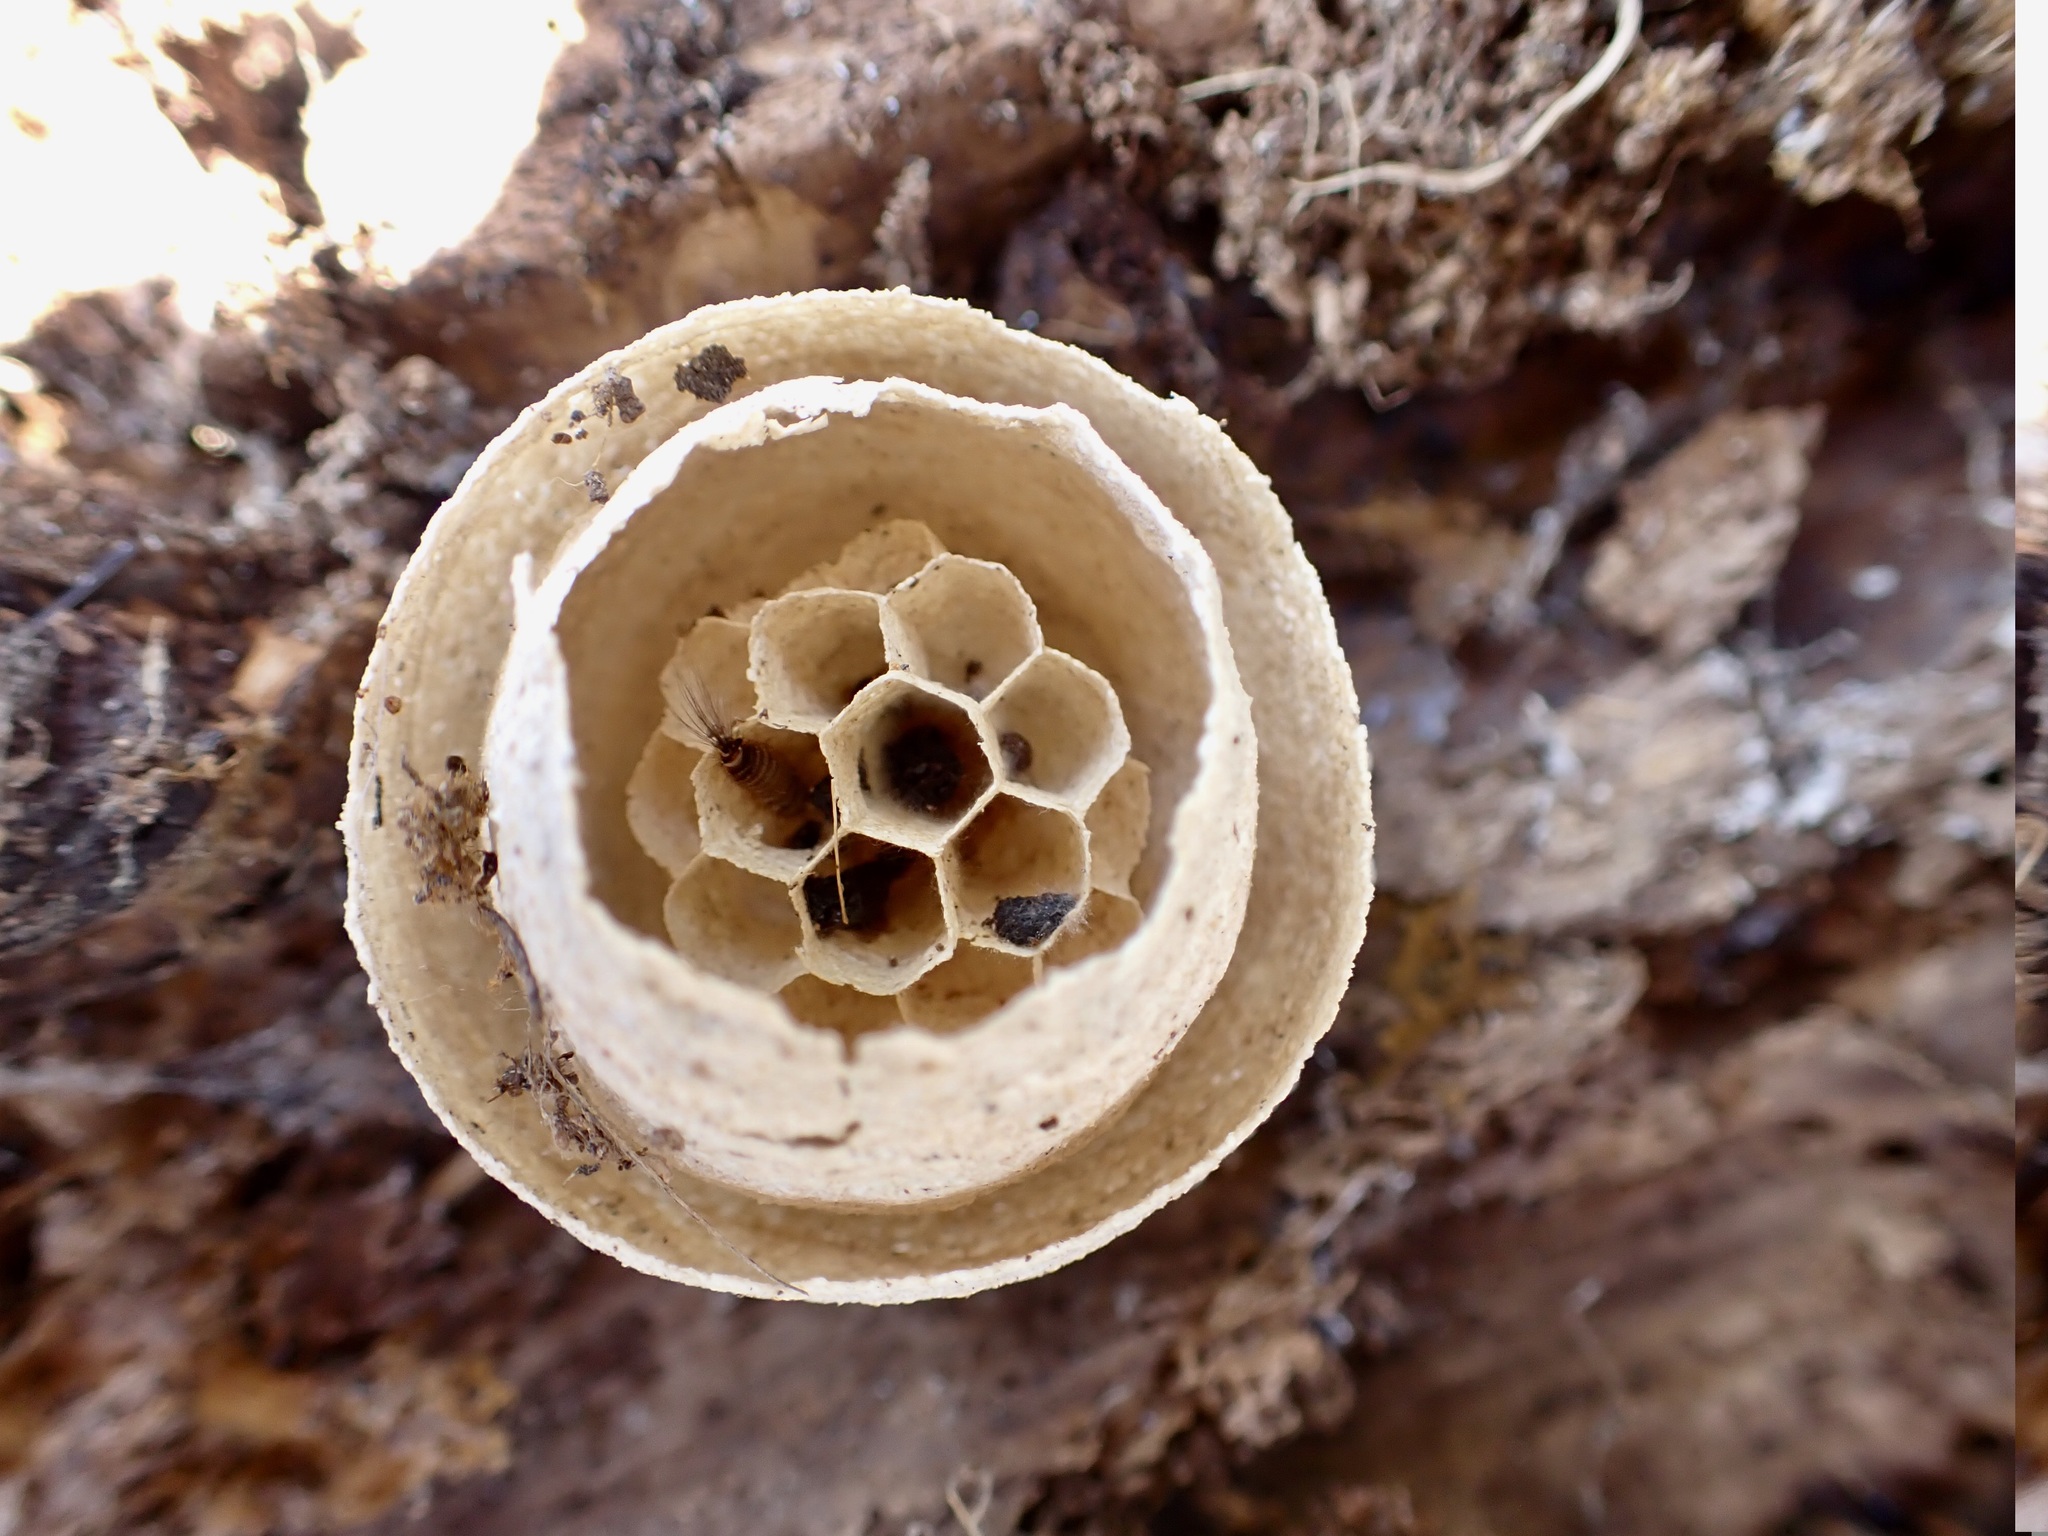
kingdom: Animalia
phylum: Arthropoda
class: Insecta
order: Hymenoptera
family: Vespidae
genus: Vespula
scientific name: Vespula vulgaris
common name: Common wasp
